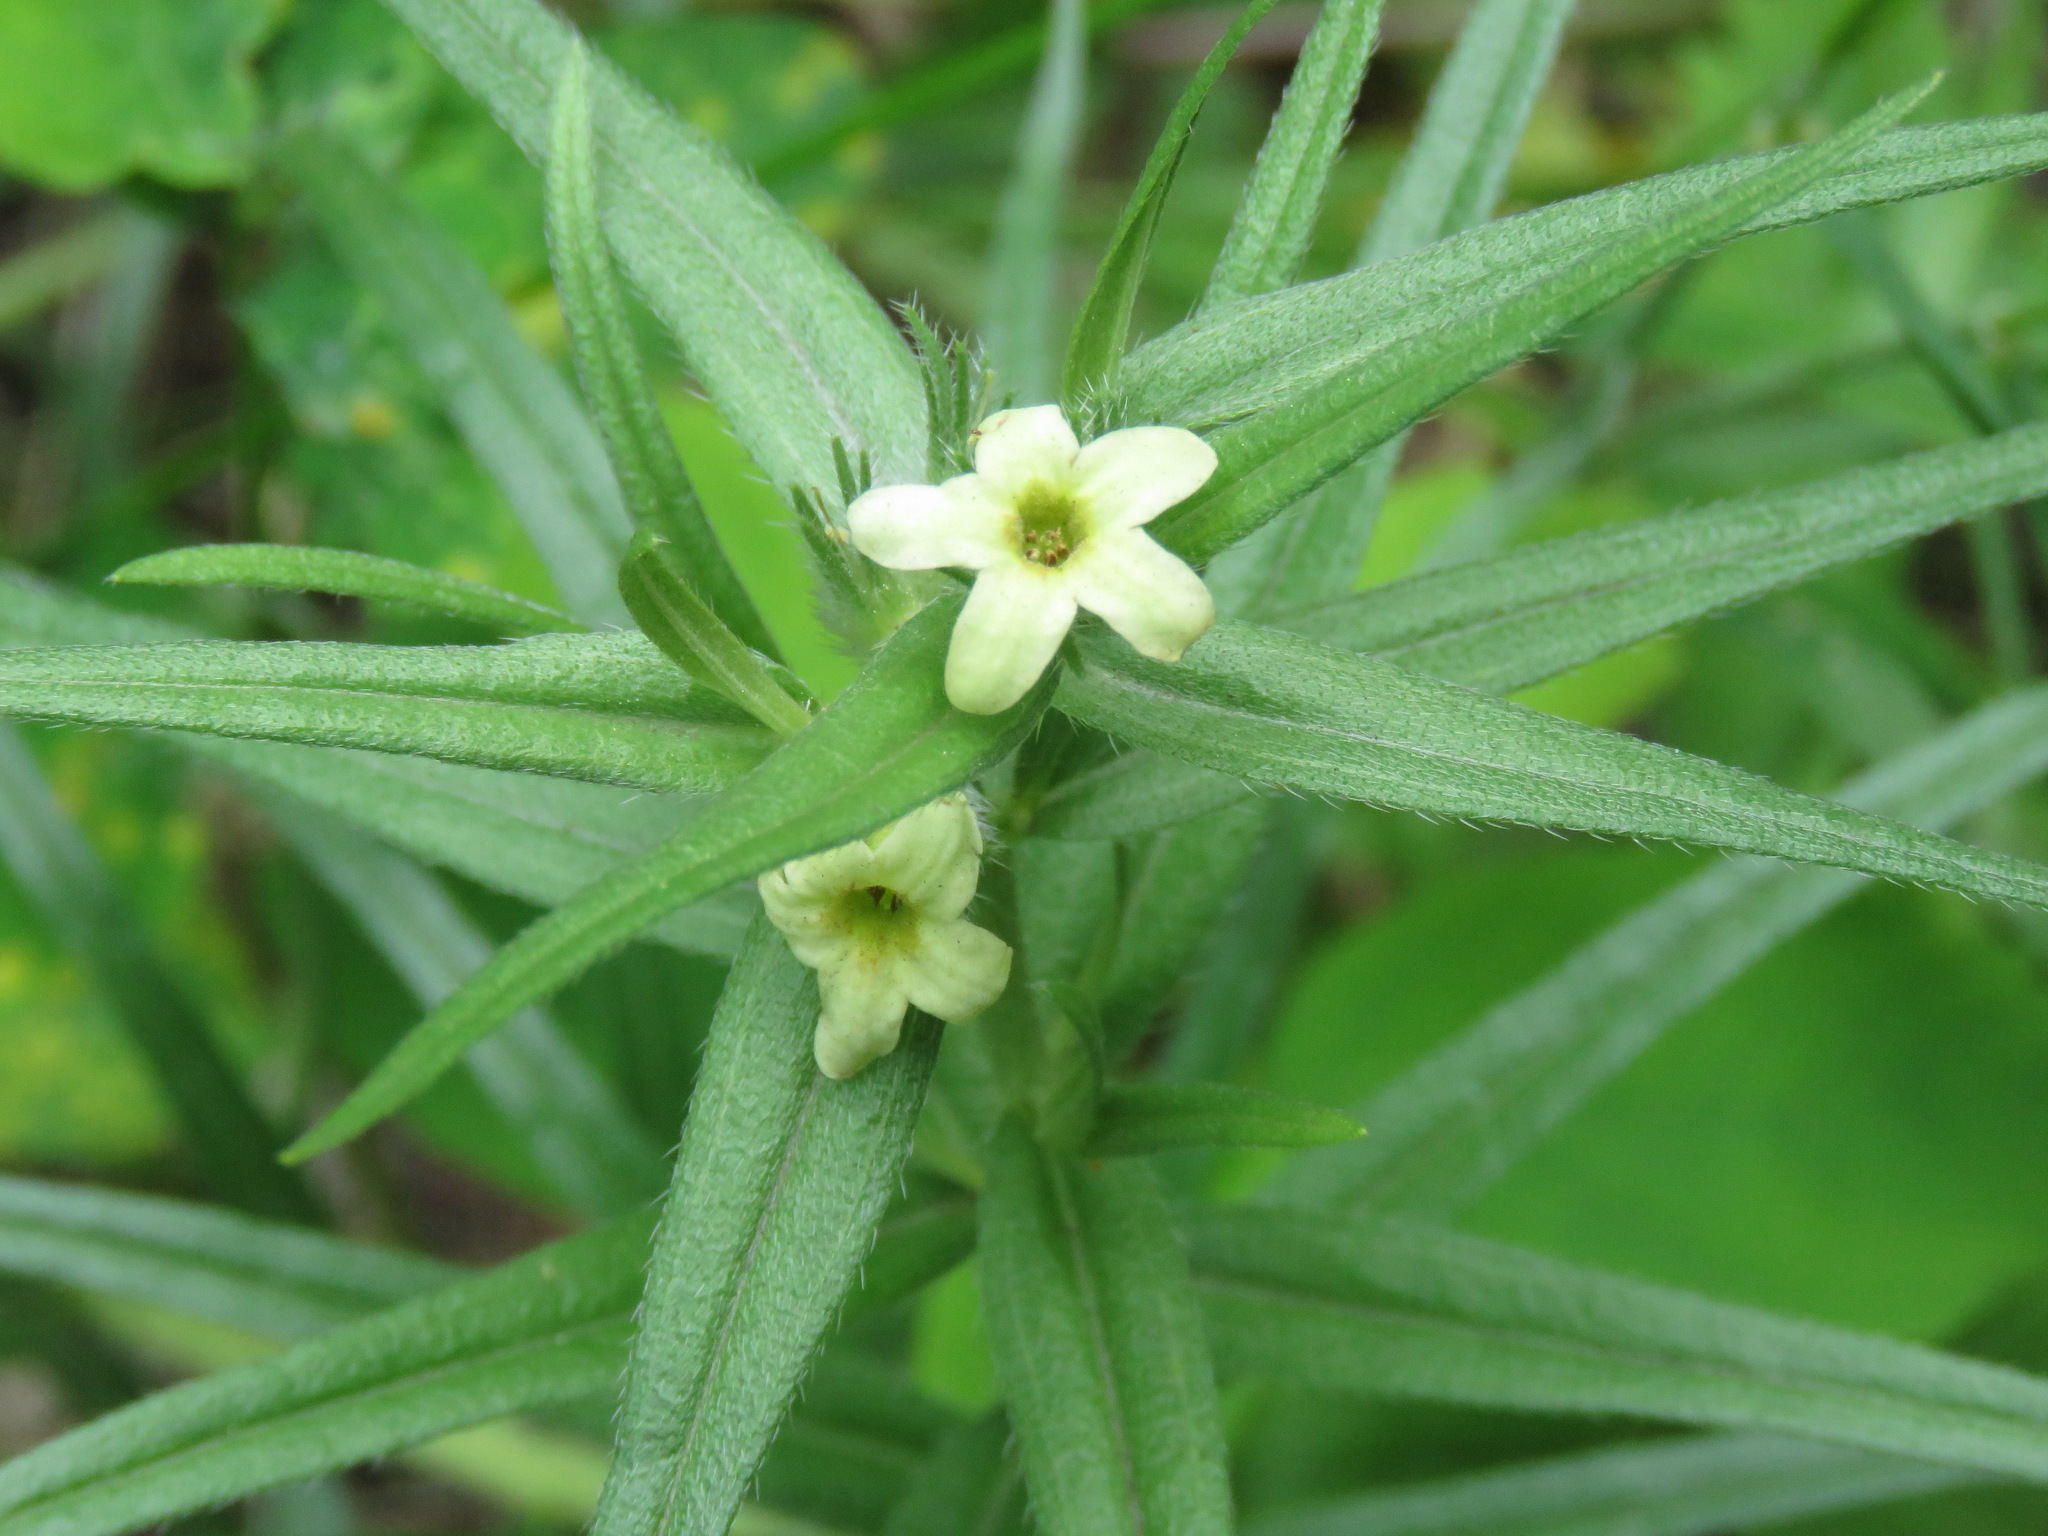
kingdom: Plantae
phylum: Tracheophyta
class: Magnoliopsida
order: Boraginales
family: Boraginaceae
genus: Lithospermum
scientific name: Lithospermum ruderale
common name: Western gromwell
